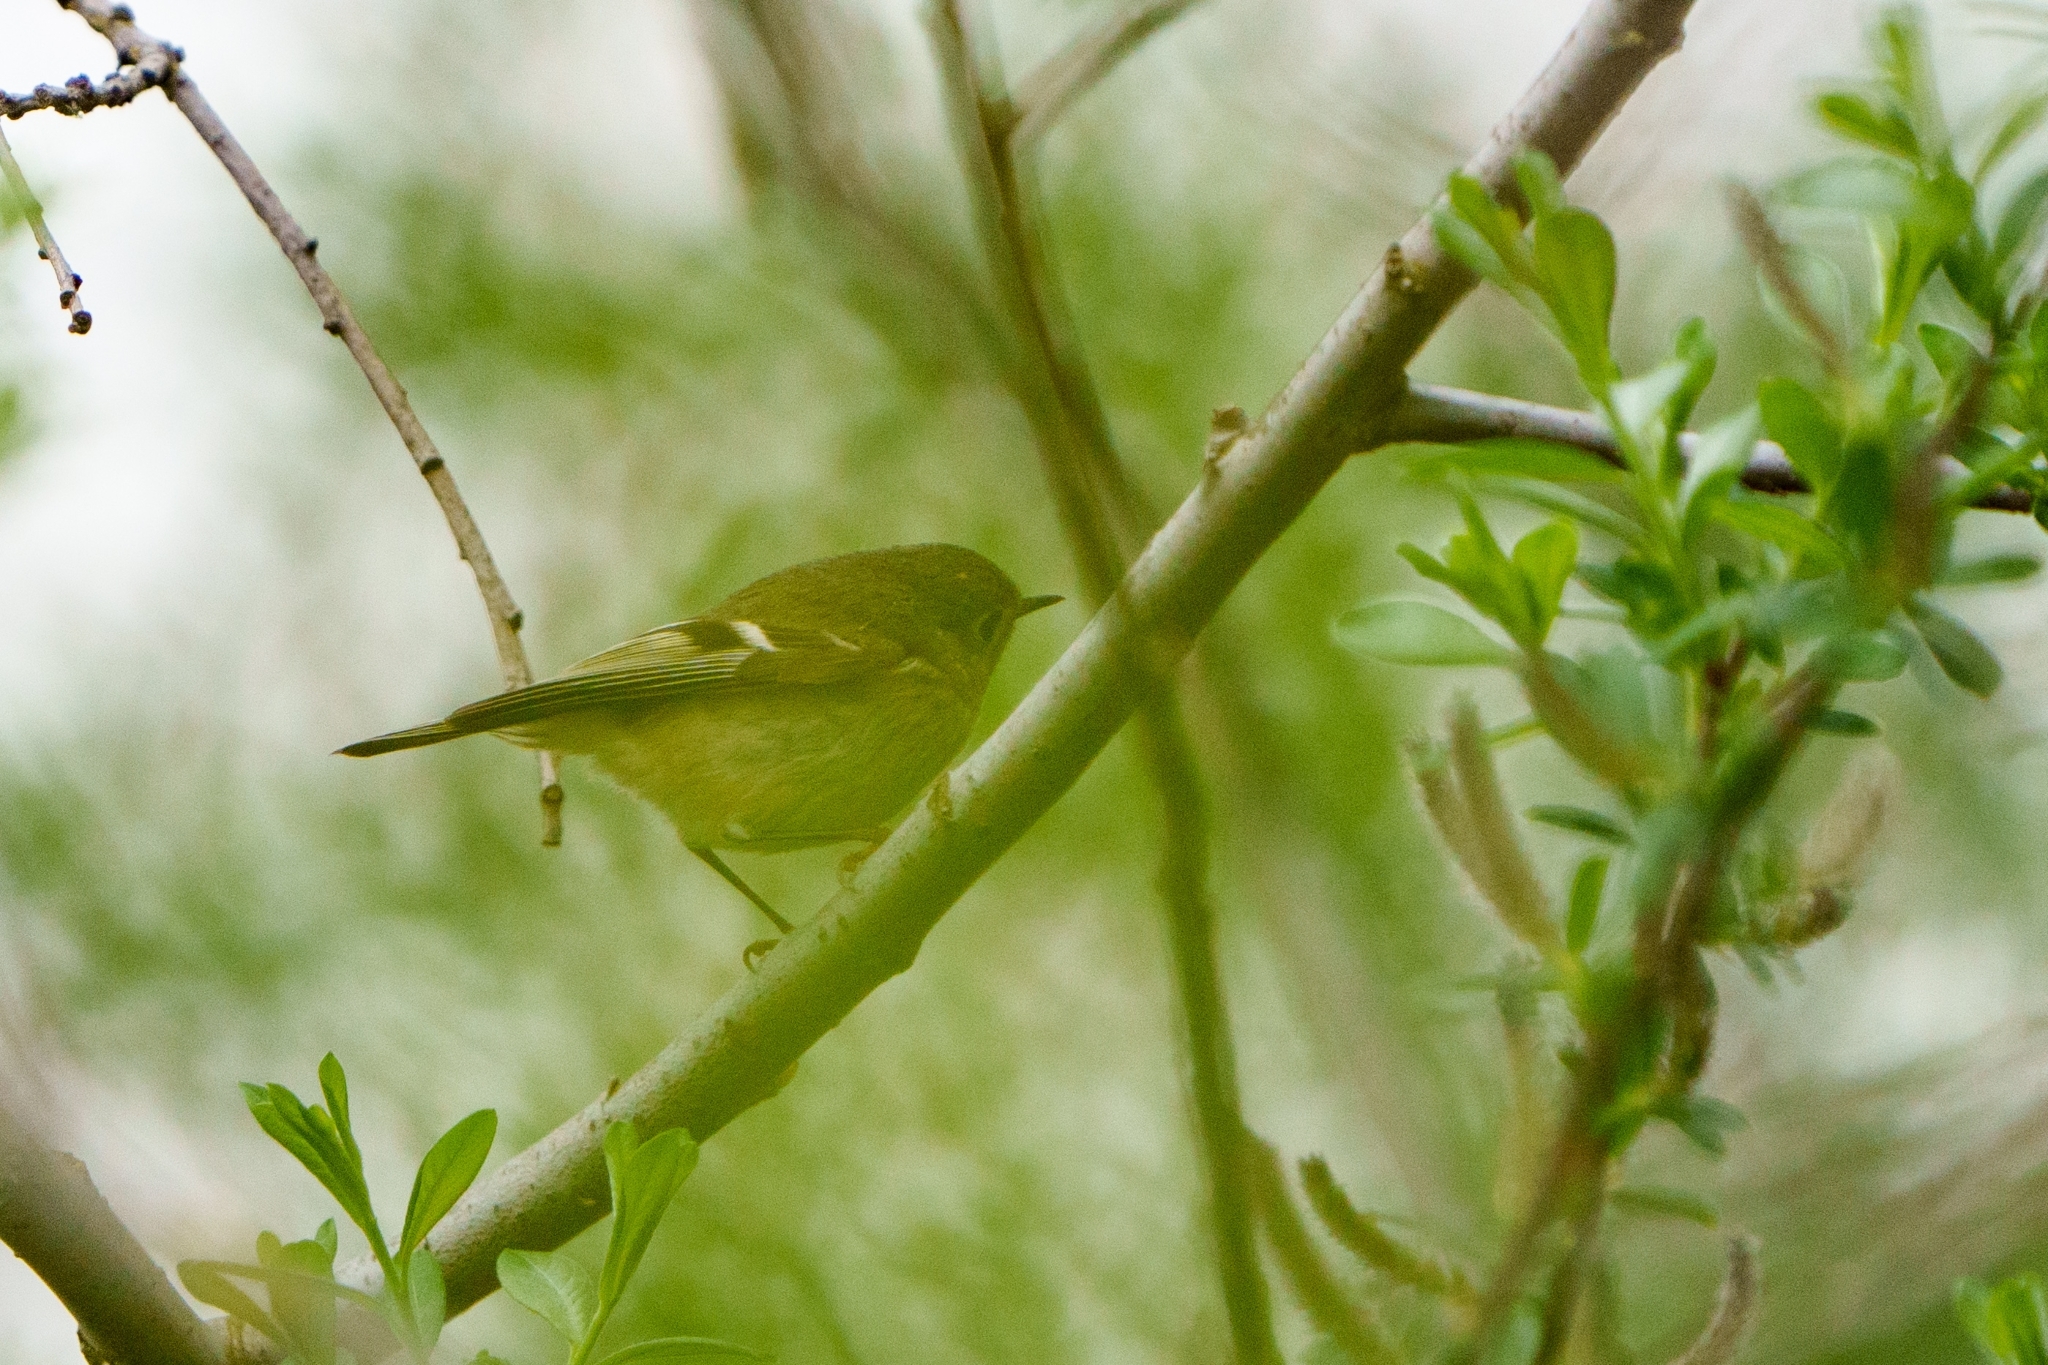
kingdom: Animalia
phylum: Chordata
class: Aves
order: Passeriformes
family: Regulidae
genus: Regulus
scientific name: Regulus calendula
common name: Ruby-crowned kinglet
